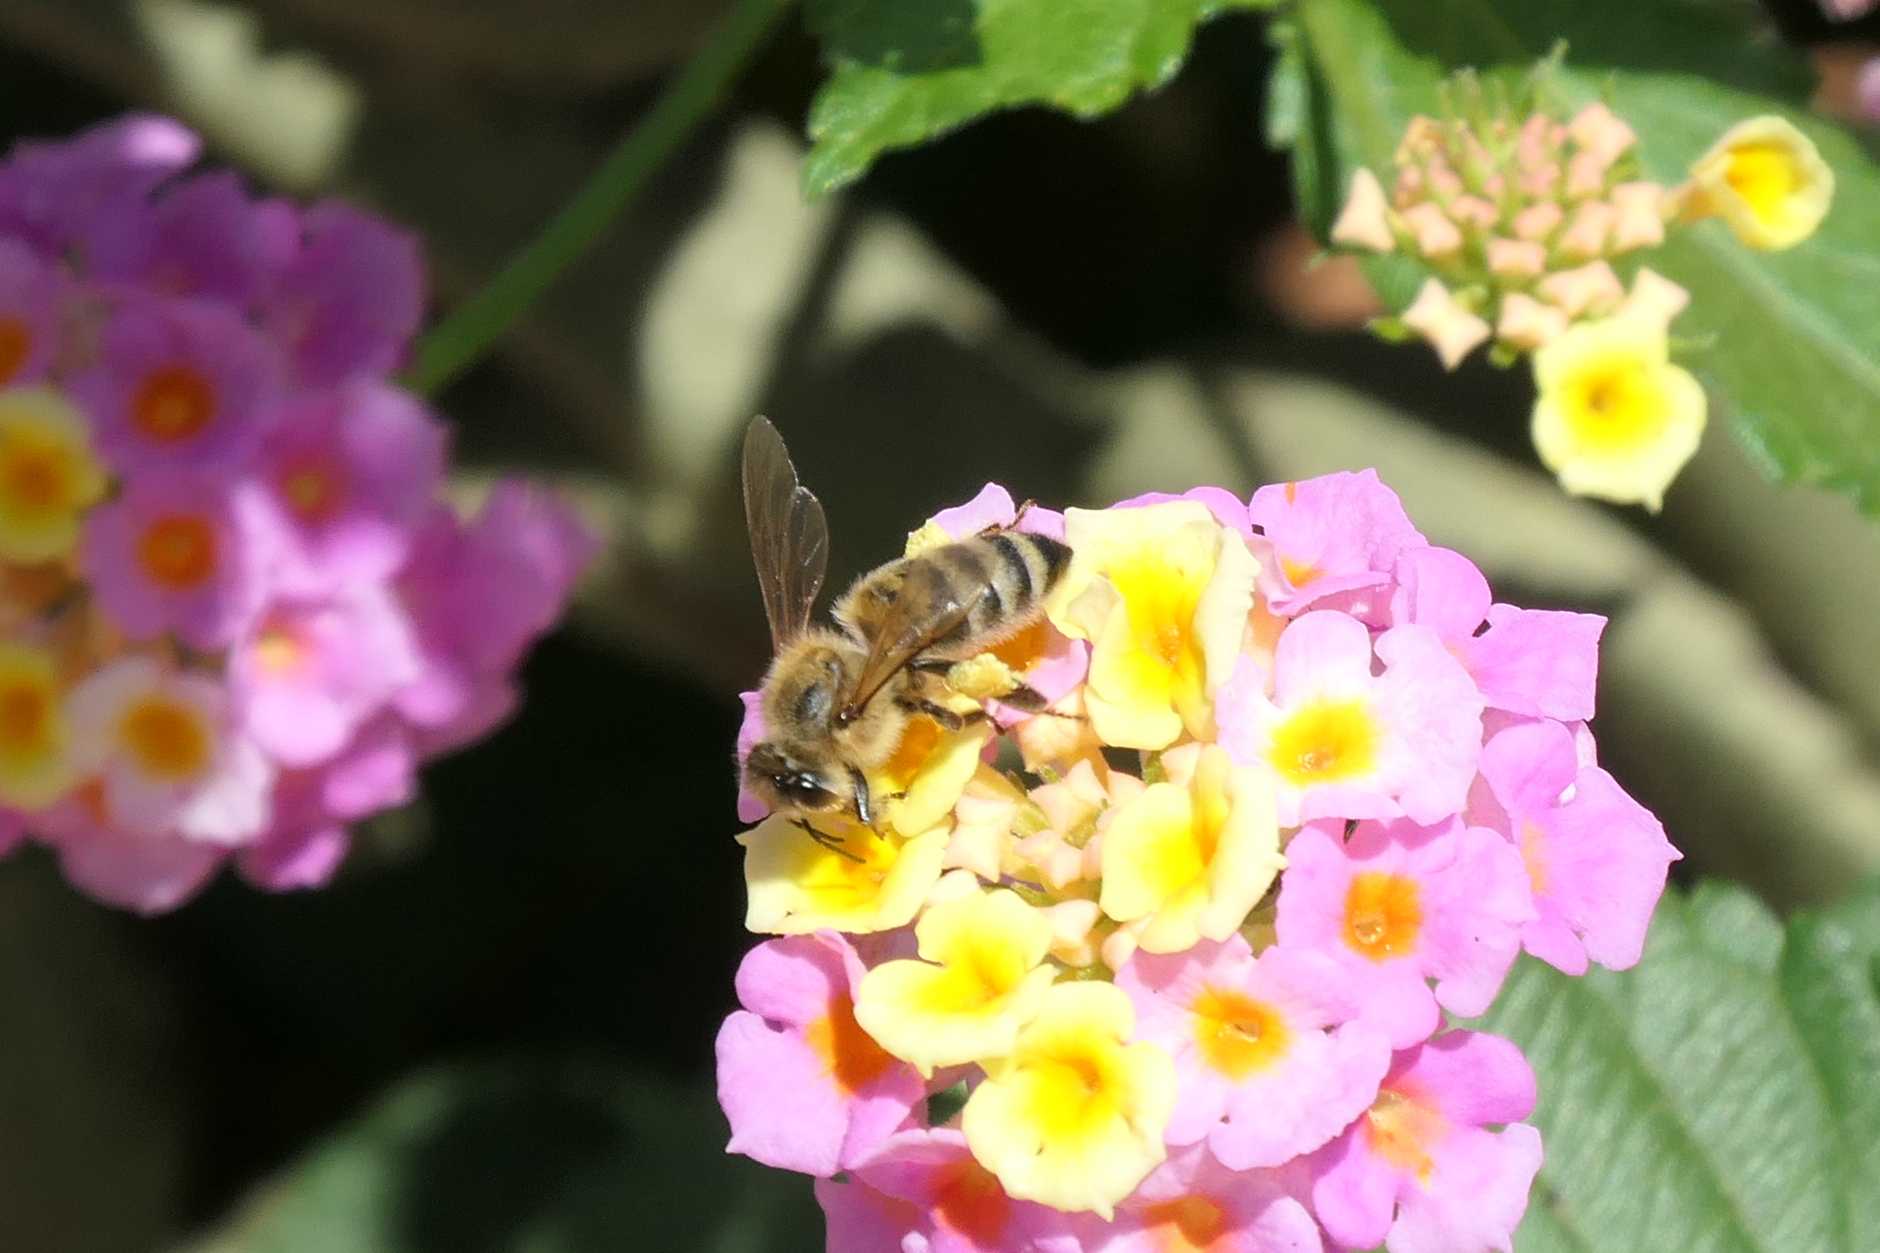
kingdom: Animalia
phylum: Arthropoda
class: Insecta
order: Hymenoptera
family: Apidae
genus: Apis
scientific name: Apis mellifera
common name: Honey bee
